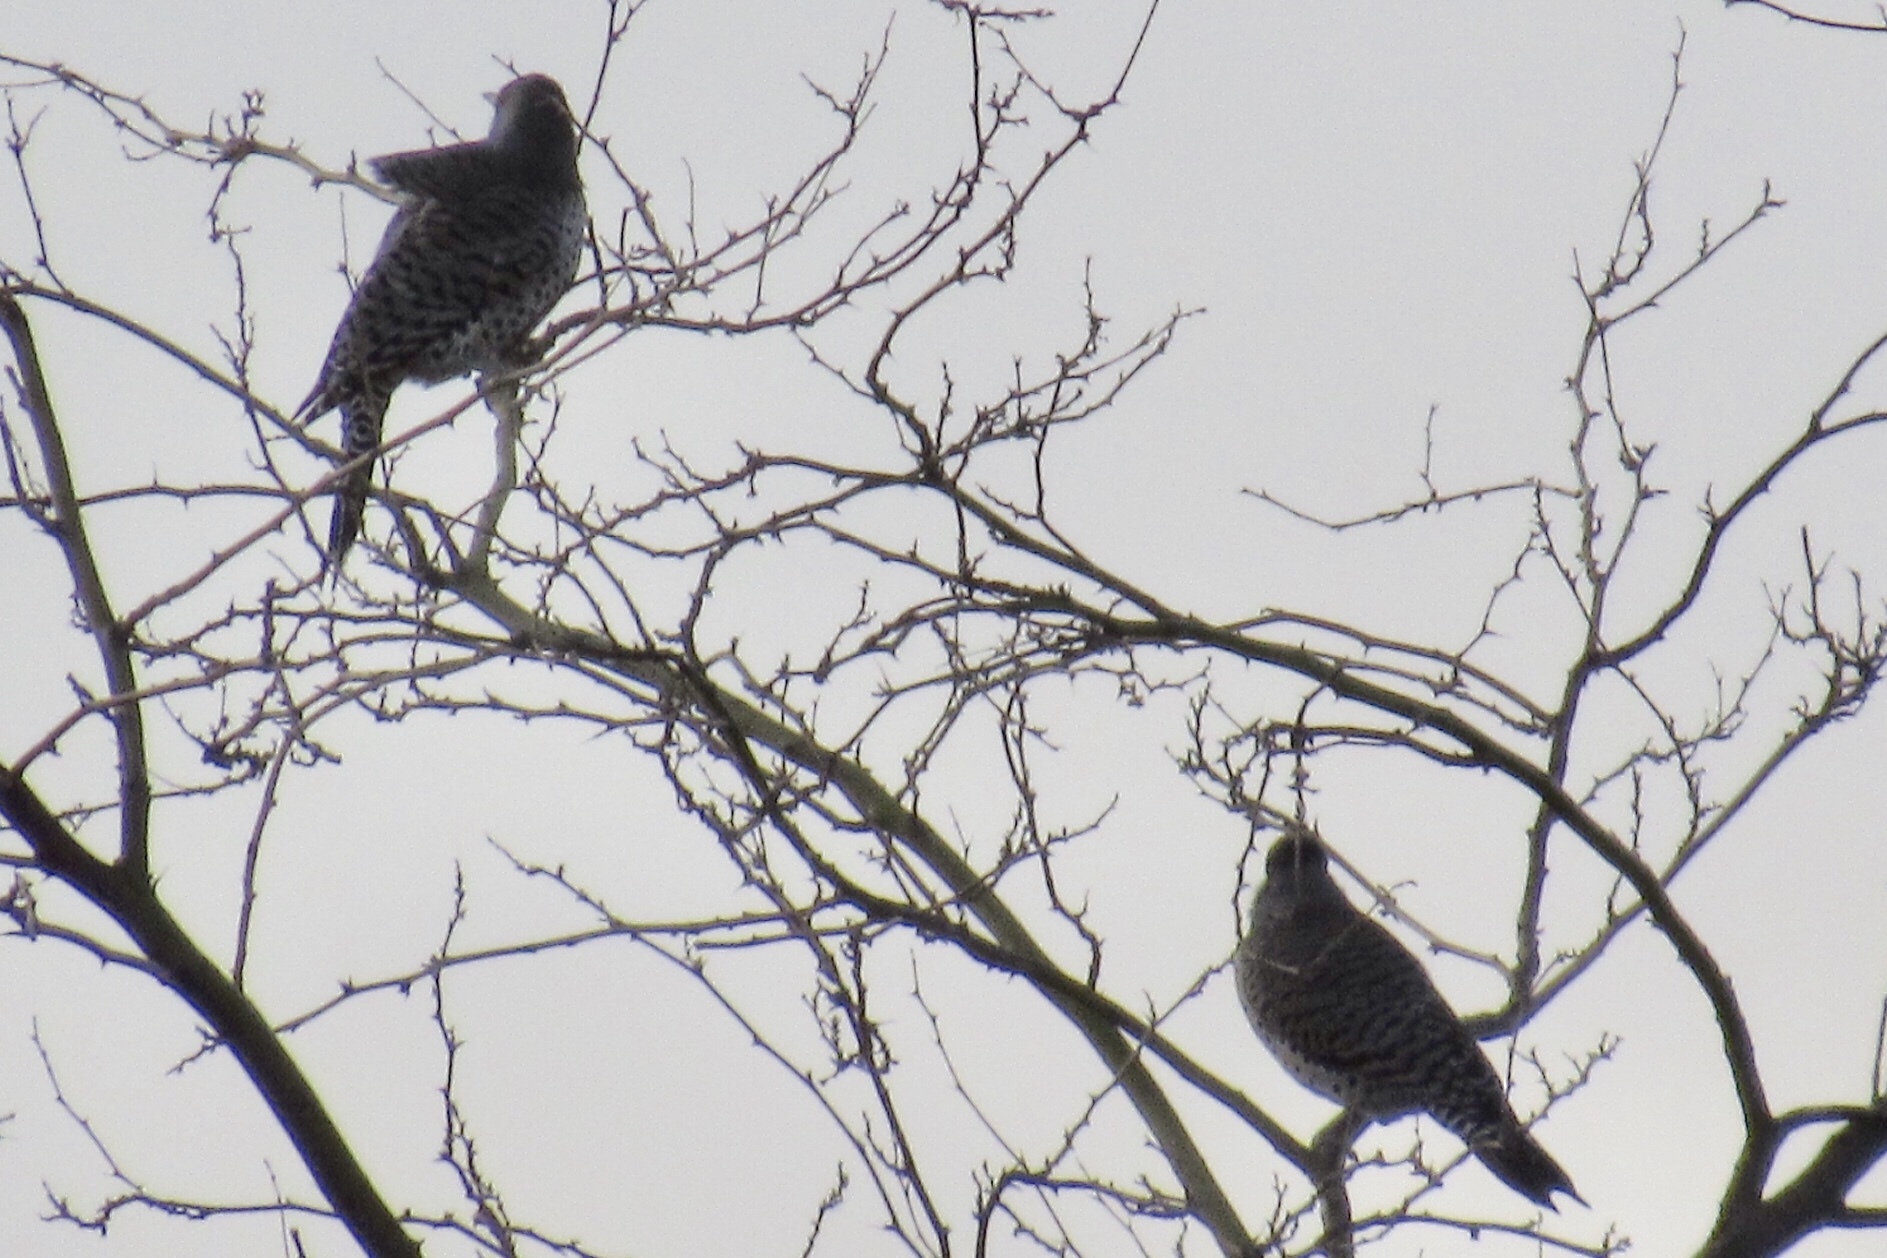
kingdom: Animalia
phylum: Chordata
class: Aves
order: Piciformes
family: Picidae
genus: Colaptes
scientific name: Colaptes auratus
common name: Northern flicker
